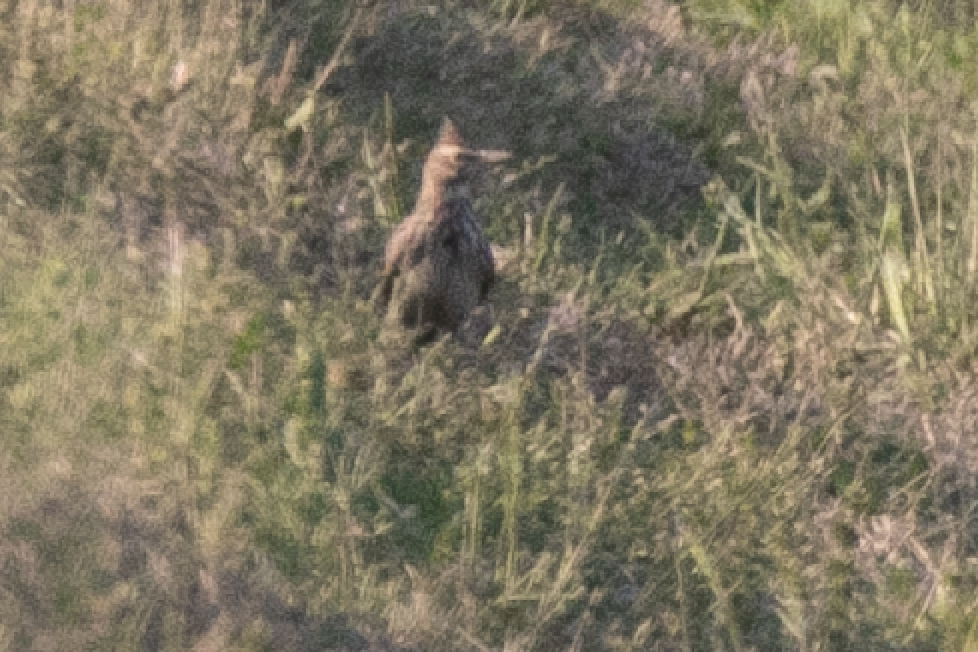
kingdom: Animalia
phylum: Chordata
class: Aves
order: Passeriformes
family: Alaudidae
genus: Galerida
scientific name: Galerida cristata
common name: Crested lark
